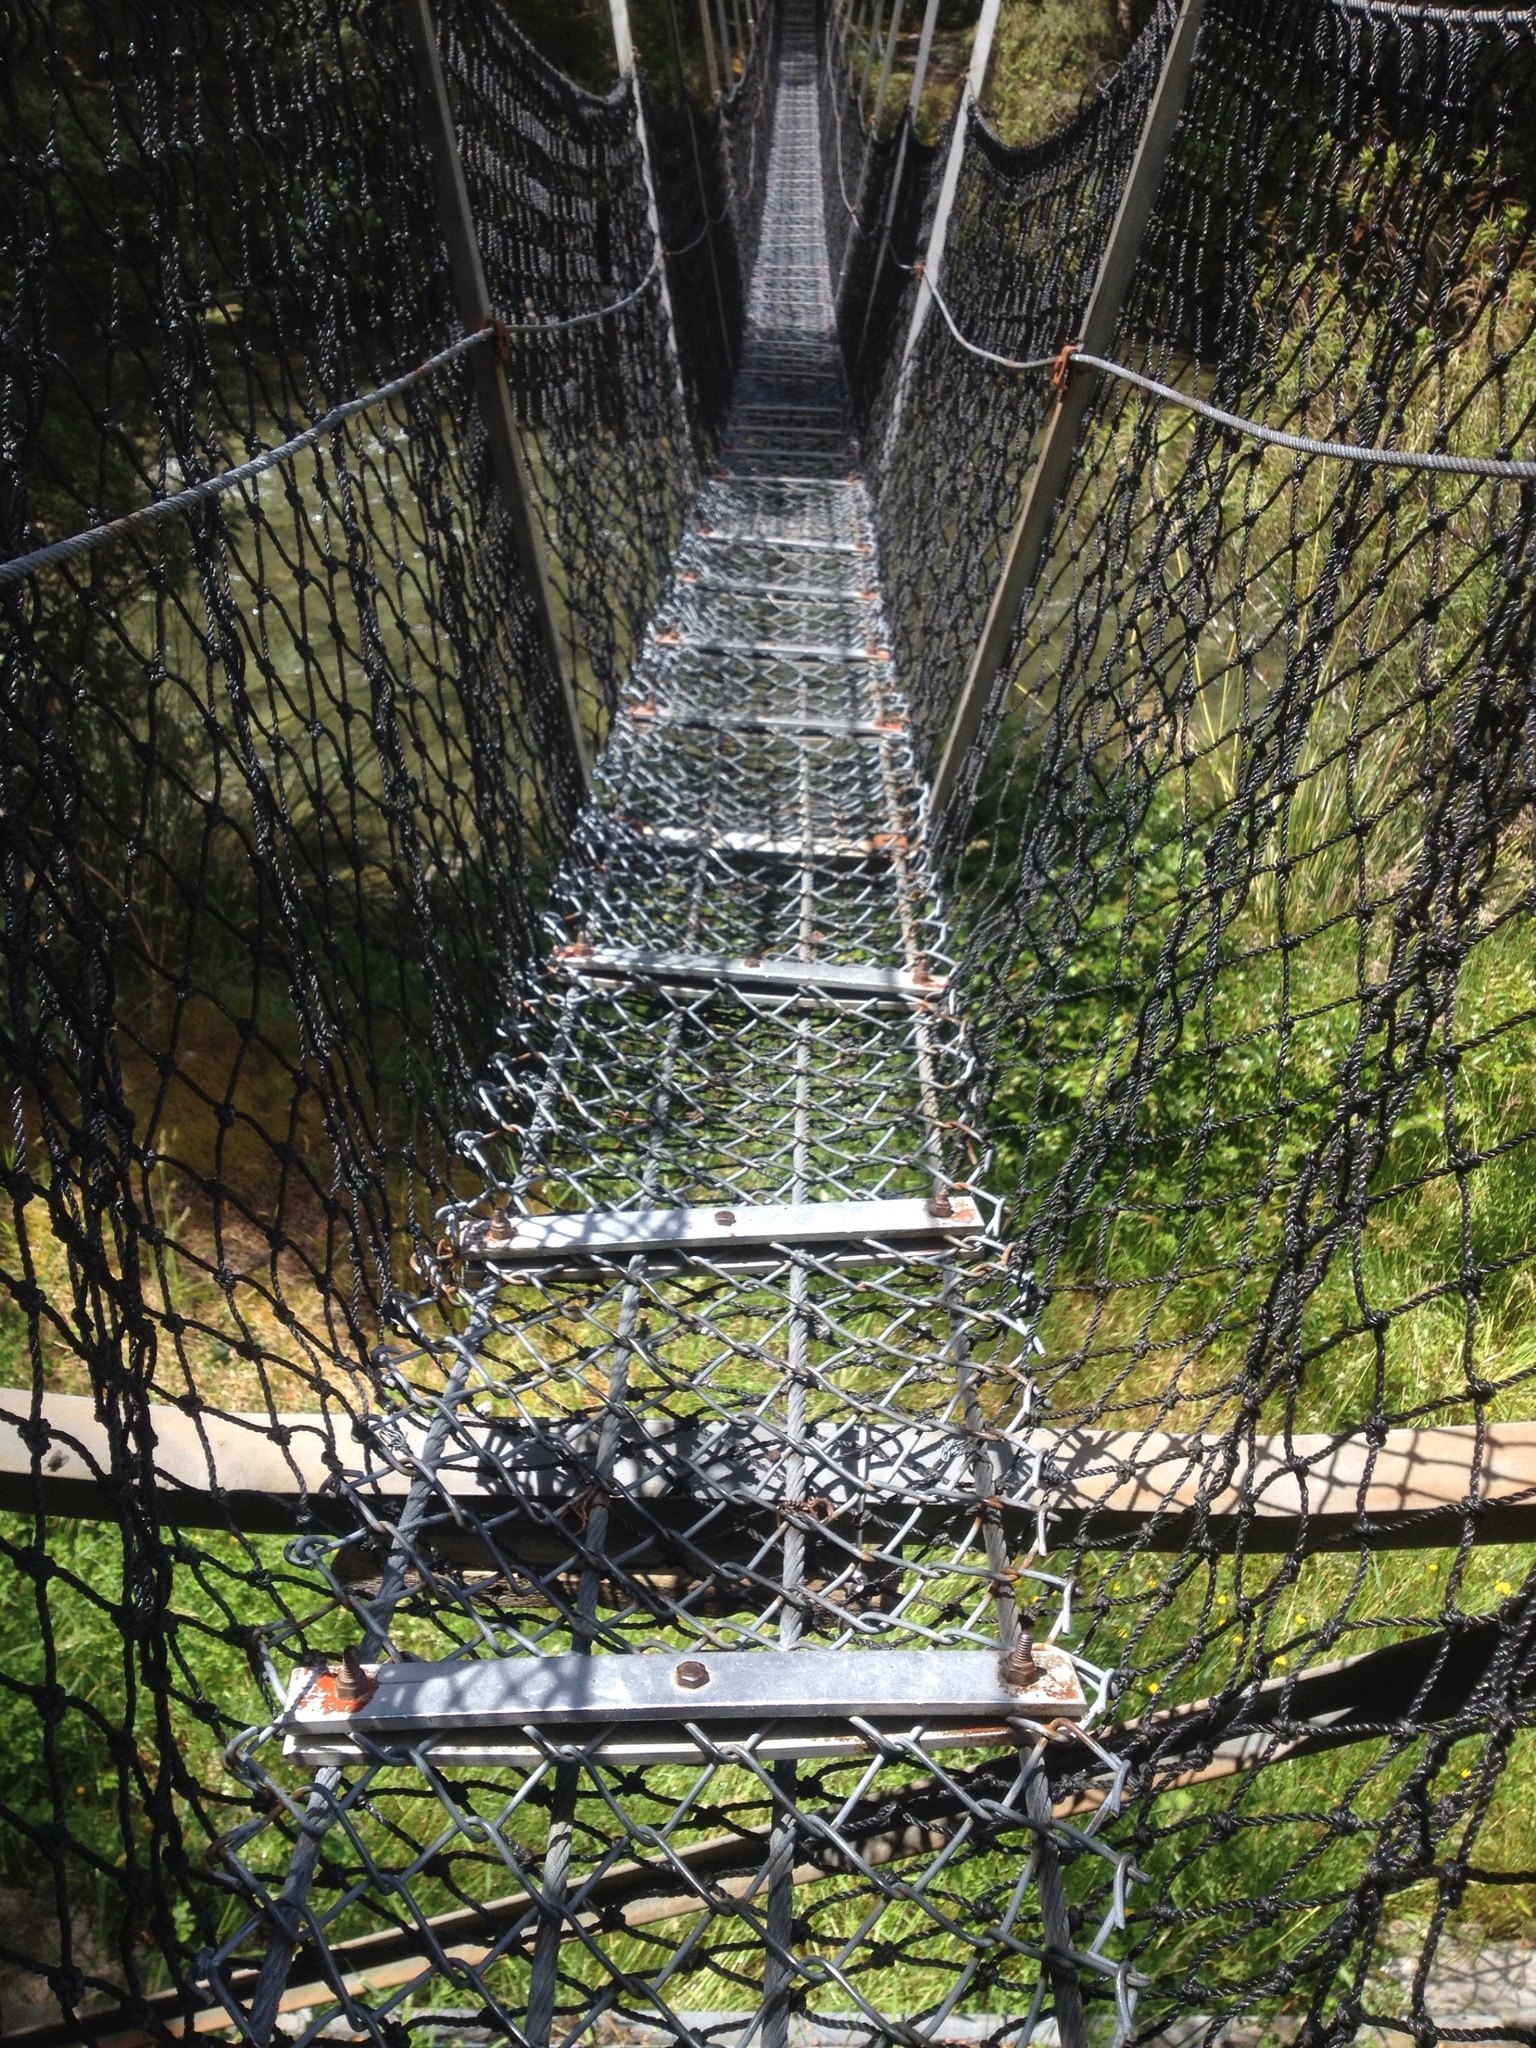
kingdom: Animalia
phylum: Chordata
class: Mammalia
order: Diprotodontia
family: Phalangeridae
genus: Trichosurus
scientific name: Trichosurus vulpecula
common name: Common brushtail
